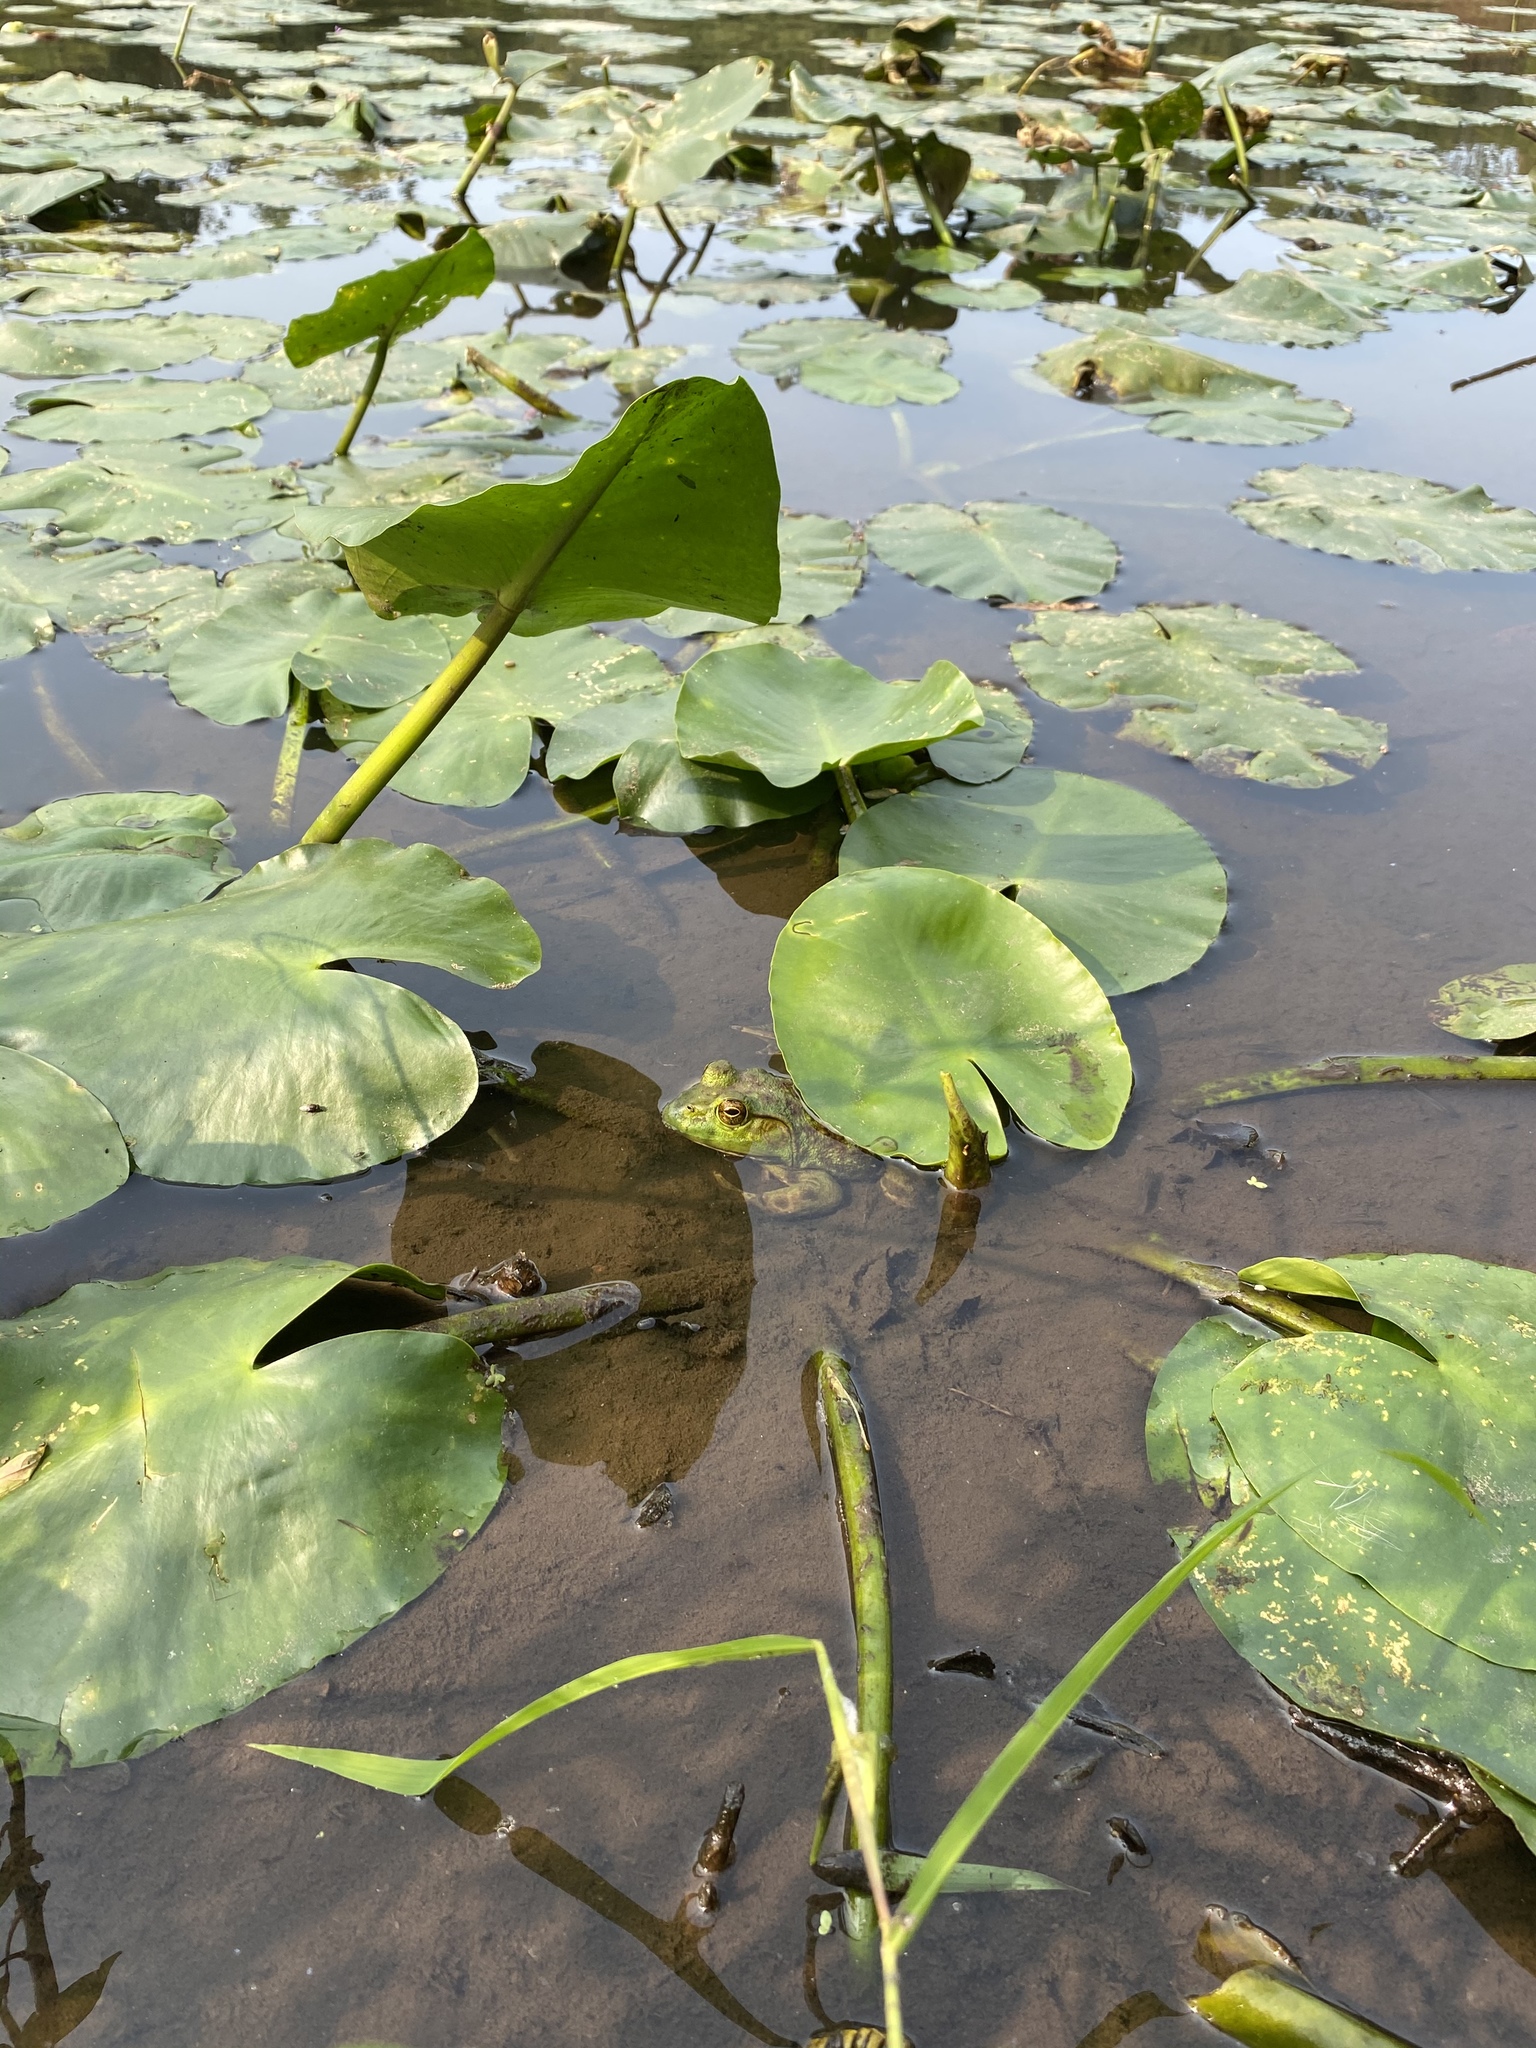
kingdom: Animalia
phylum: Chordata
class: Amphibia
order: Anura
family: Ranidae
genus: Lithobates
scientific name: Lithobates catesbeianus
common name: American bullfrog
